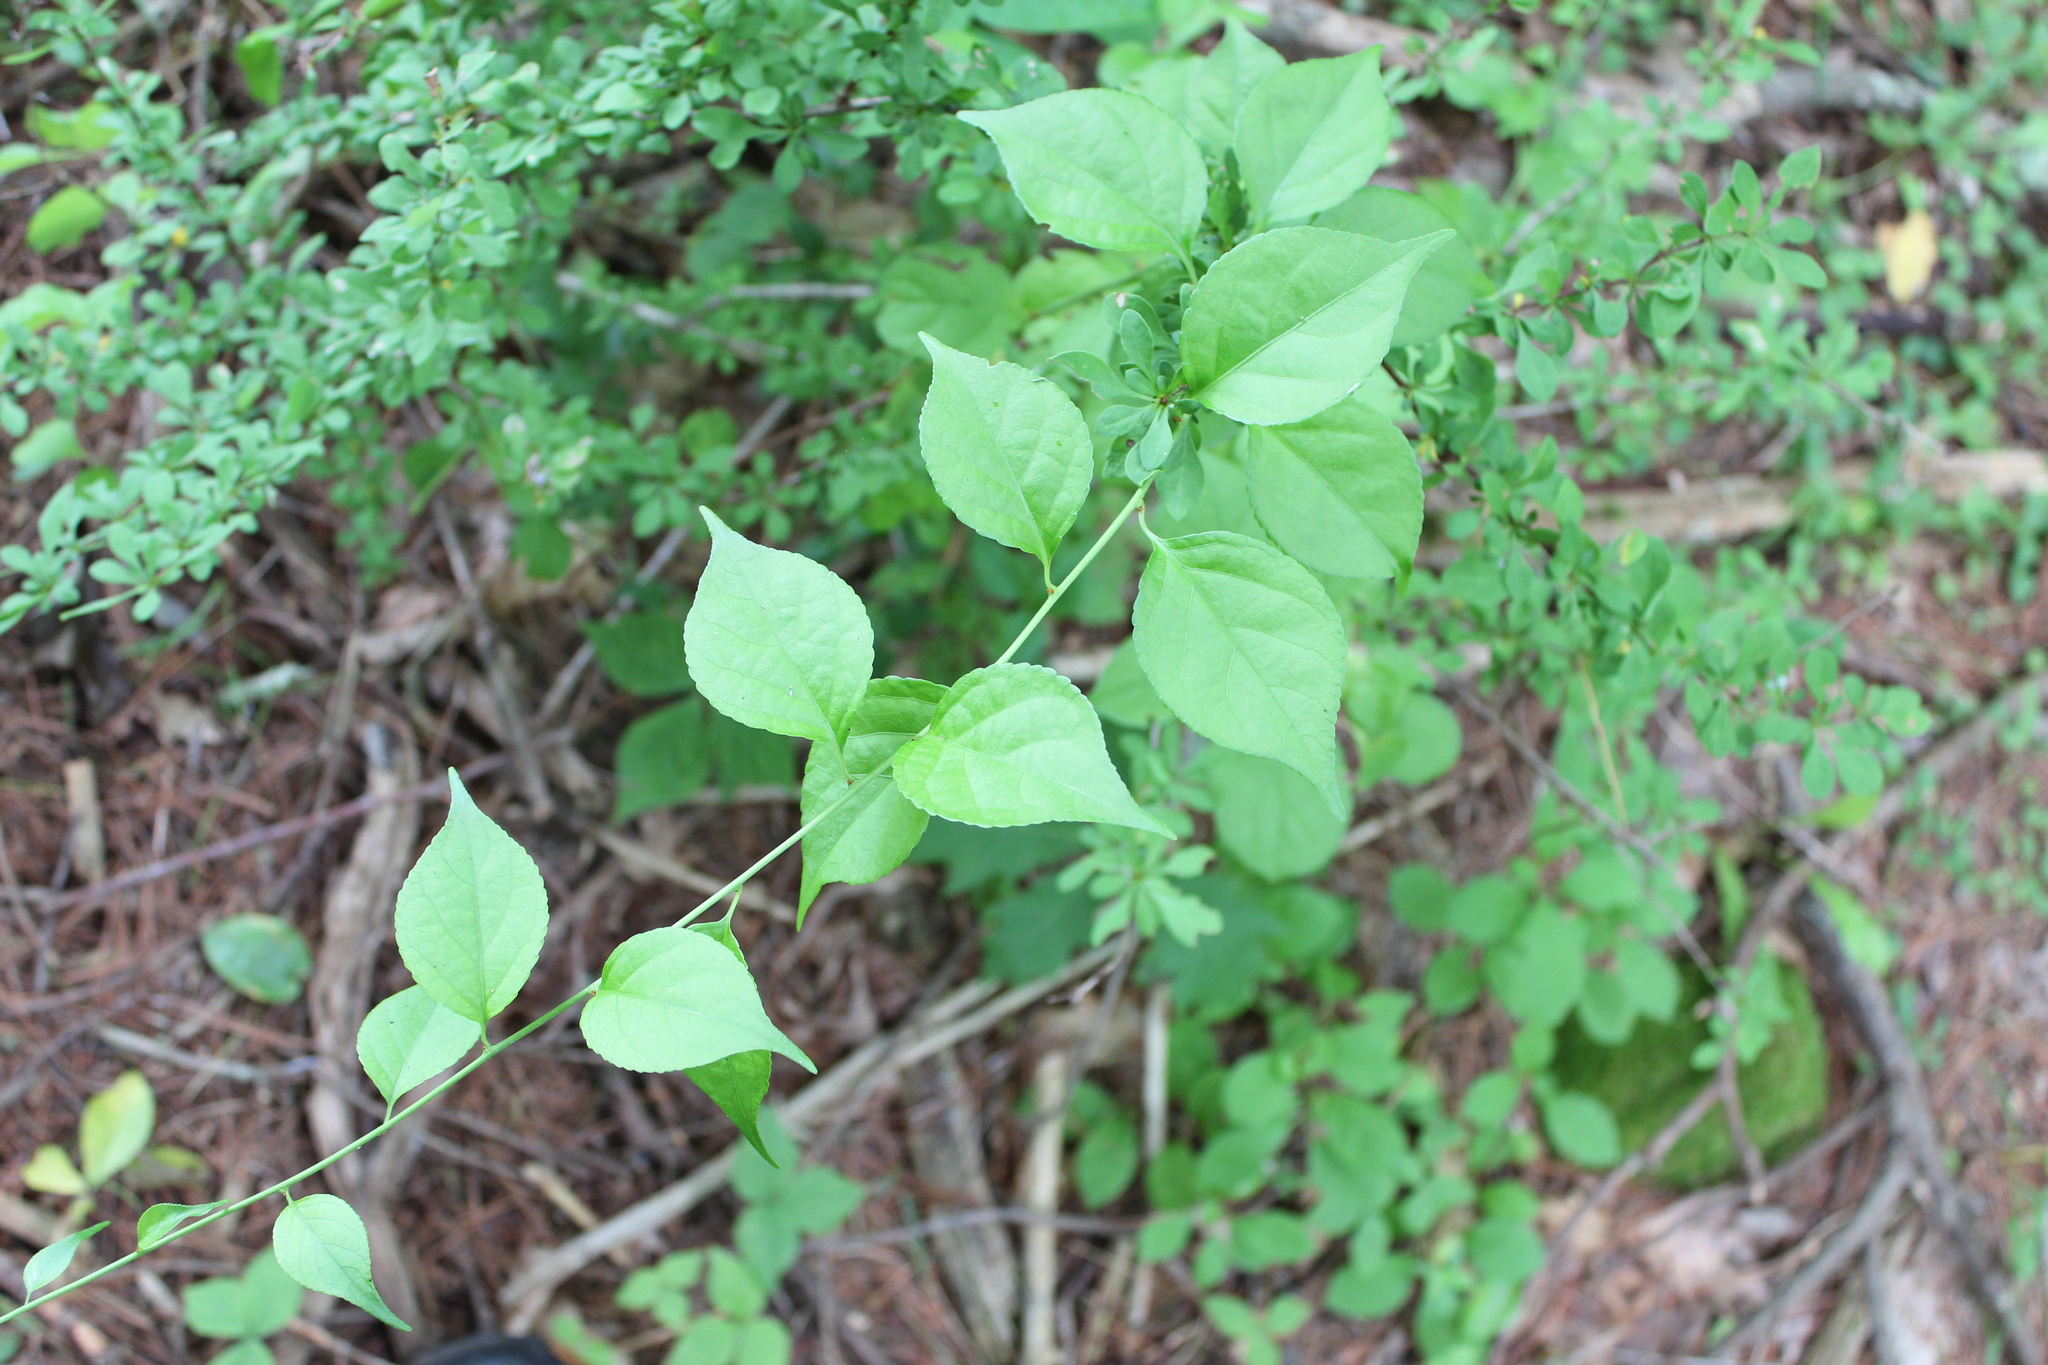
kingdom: Plantae
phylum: Tracheophyta
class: Magnoliopsida
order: Celastrales
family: Celastraceae
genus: Celastrus
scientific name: Celastrus orbiculatus
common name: Oriental bittersweet
